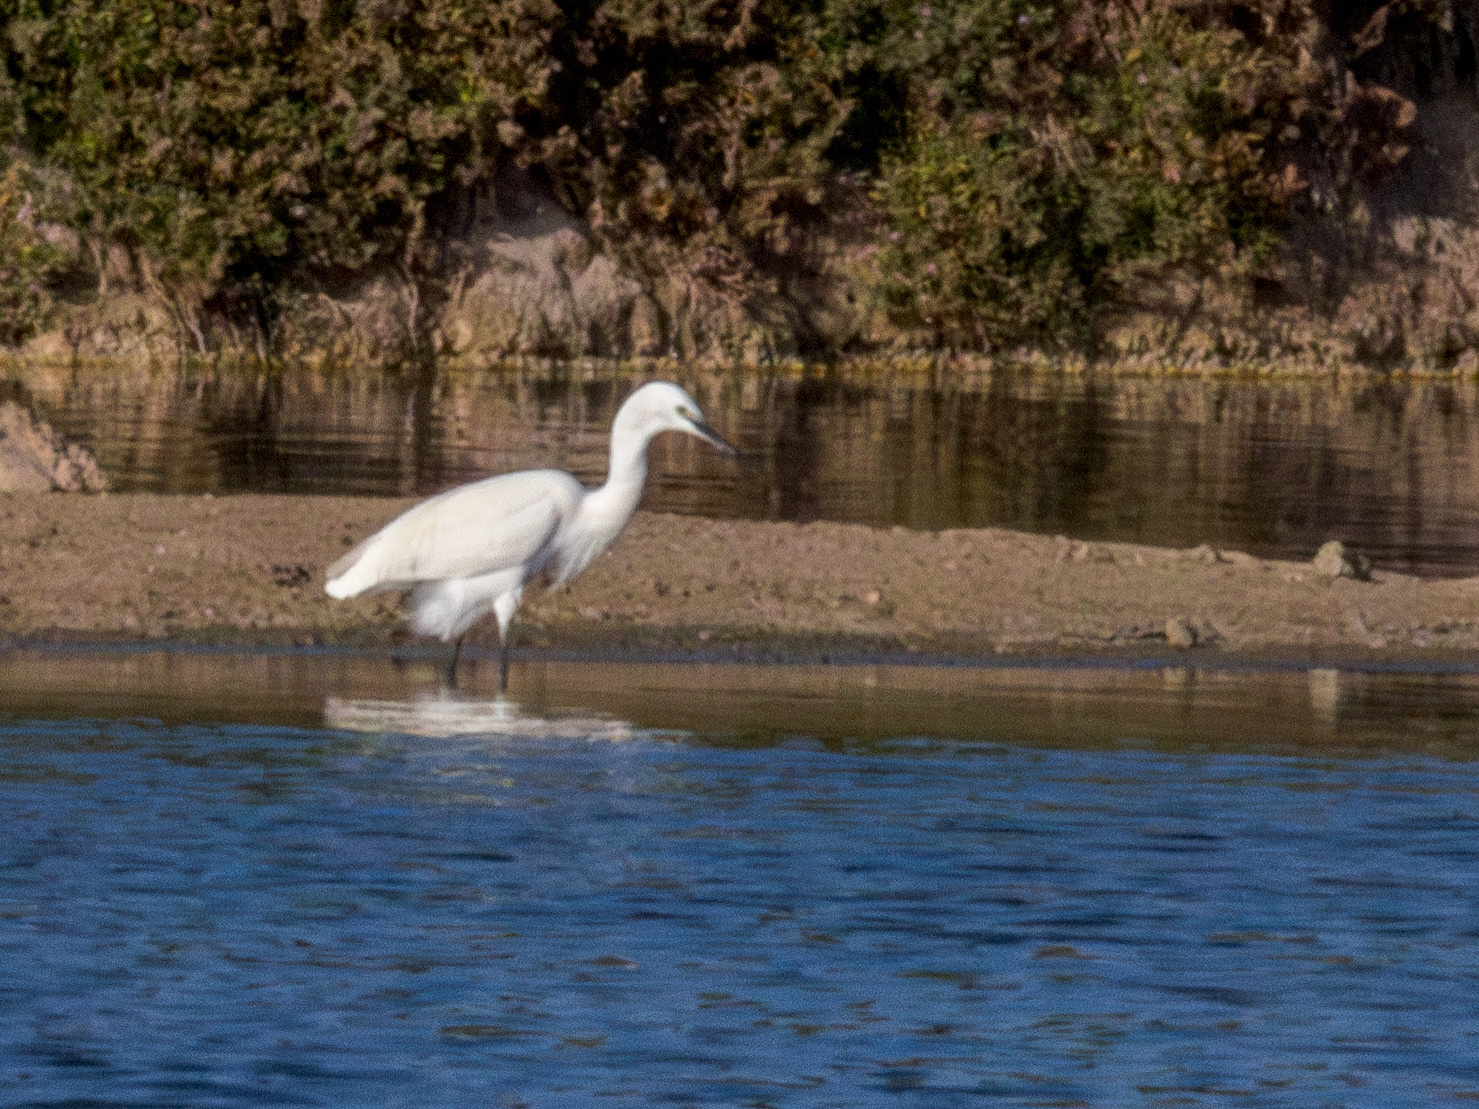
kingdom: Animalia
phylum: Chordata
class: Aves
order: Pelecaniformes
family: Ardeidae
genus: Egretta
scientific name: Egretta garzetta
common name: Little egret
